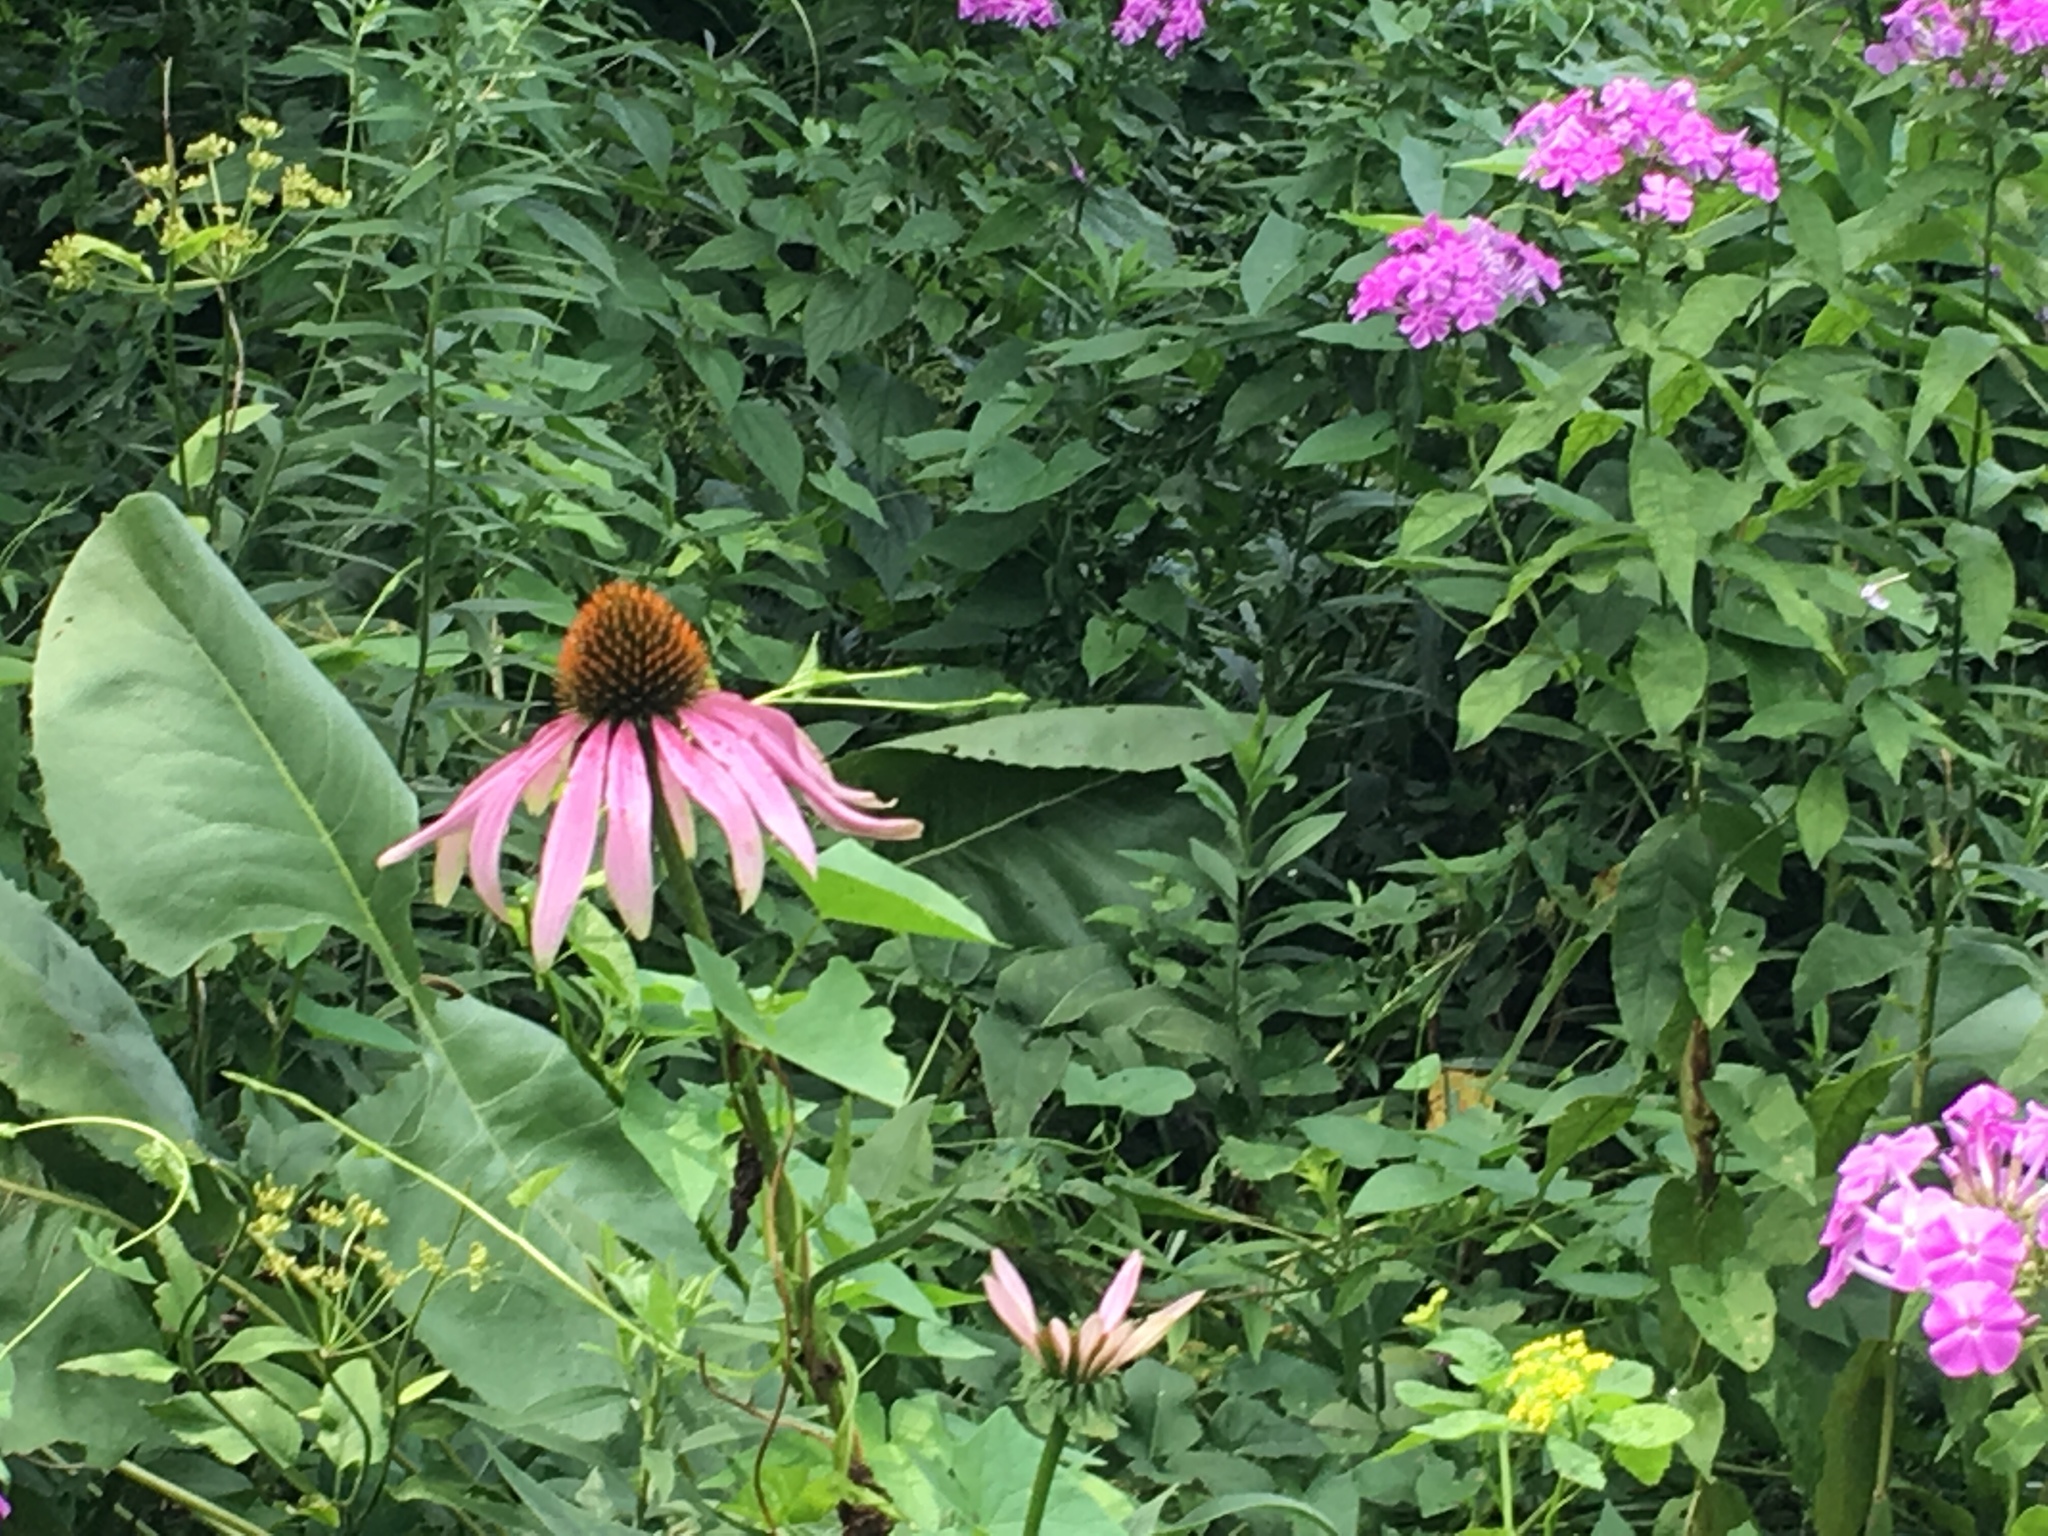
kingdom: Plantae
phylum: Tracheophyta
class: Magnoliopsida
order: Asterales
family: Asteraceae
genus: Echinacea
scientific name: Echinacea purpurea
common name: Broad-leaved purple coneflower
